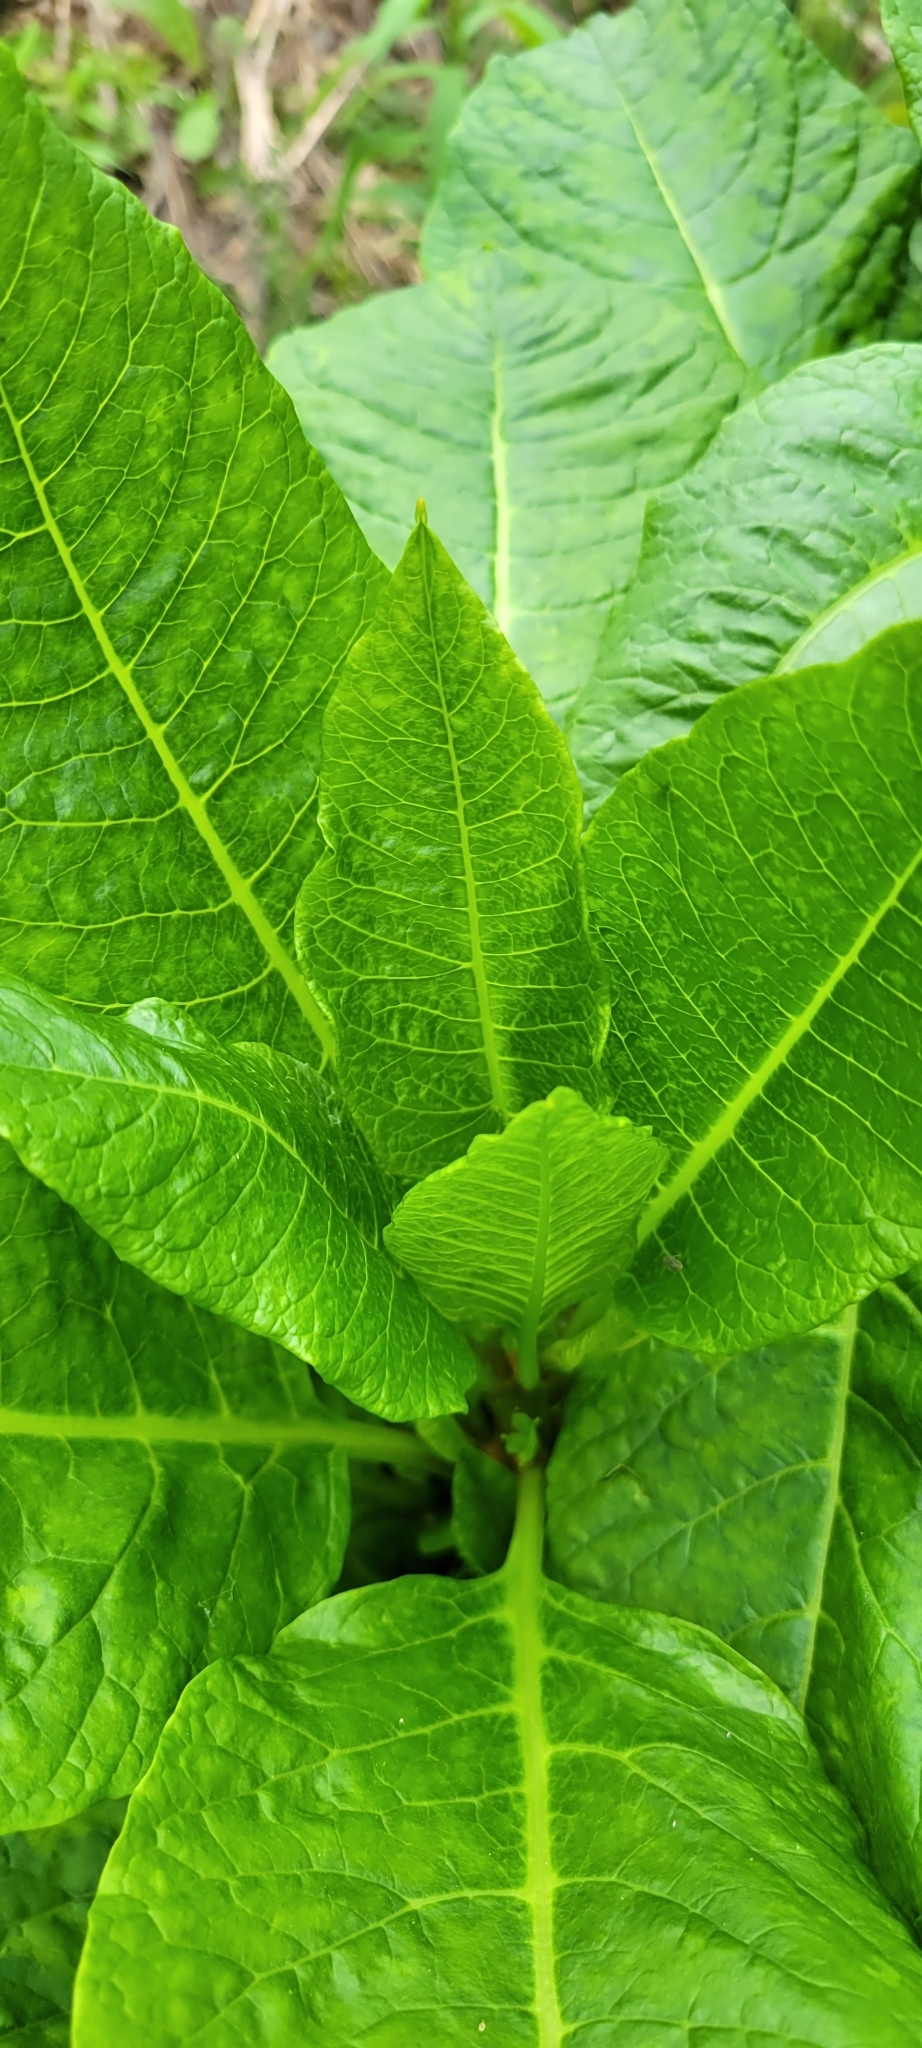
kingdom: Viruses
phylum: Pisuviricota
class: Stelpaviricetes
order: Patatavirales
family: Potyviridae
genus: Potyvirus
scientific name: Potyvirus Pokeweed mosaic virus
